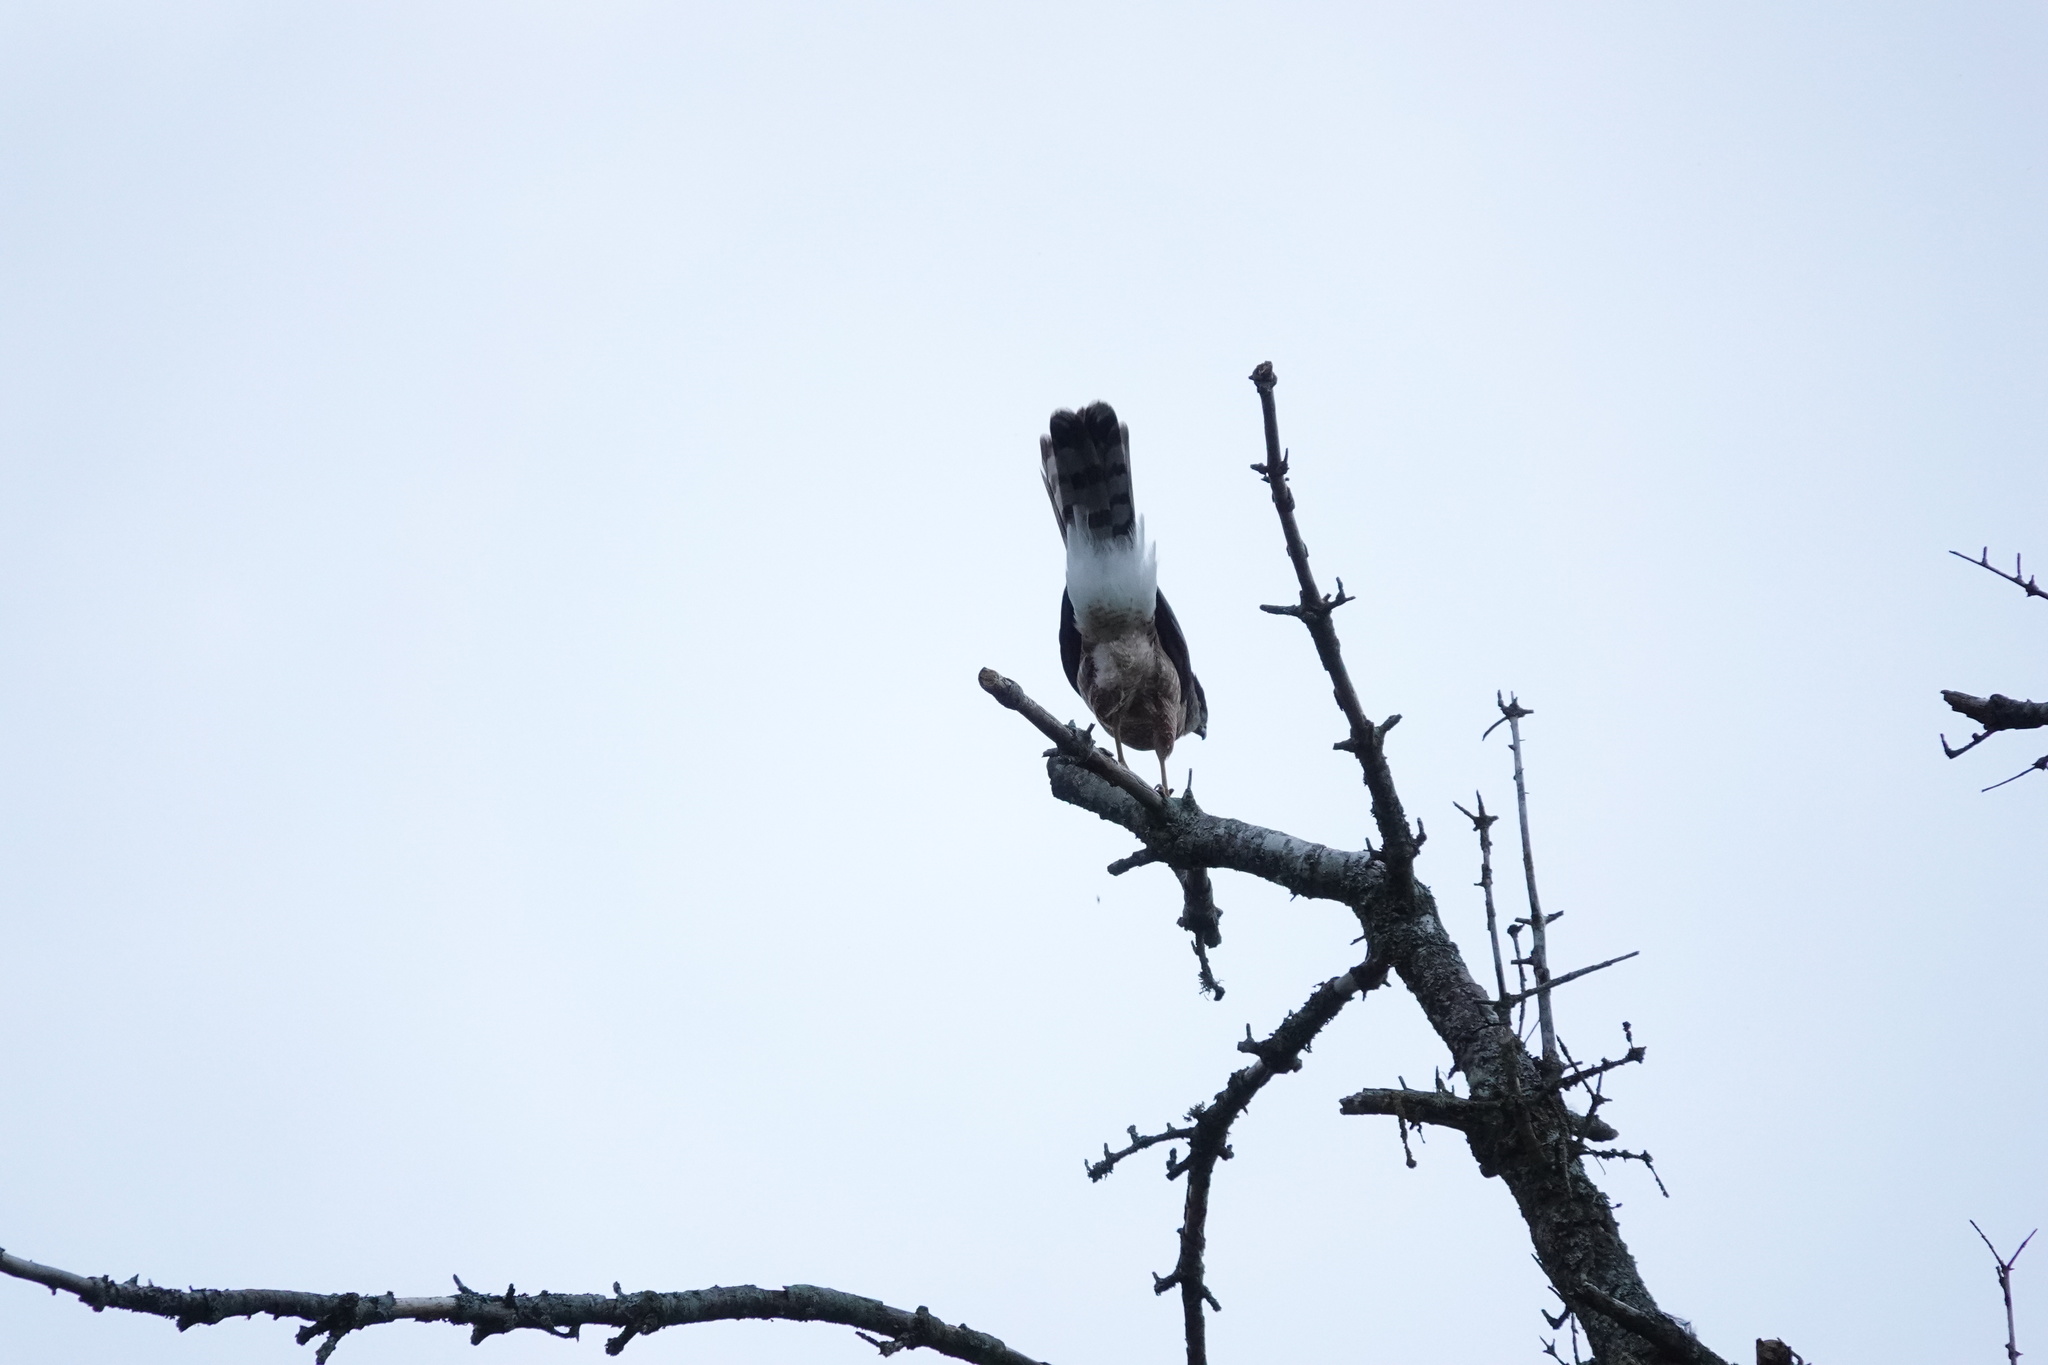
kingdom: Animalia
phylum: Chordata
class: Aves
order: Accipitriformes
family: Accipitridae
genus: Accipiter
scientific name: Accipiter cooperii
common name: Cooper's hawk
